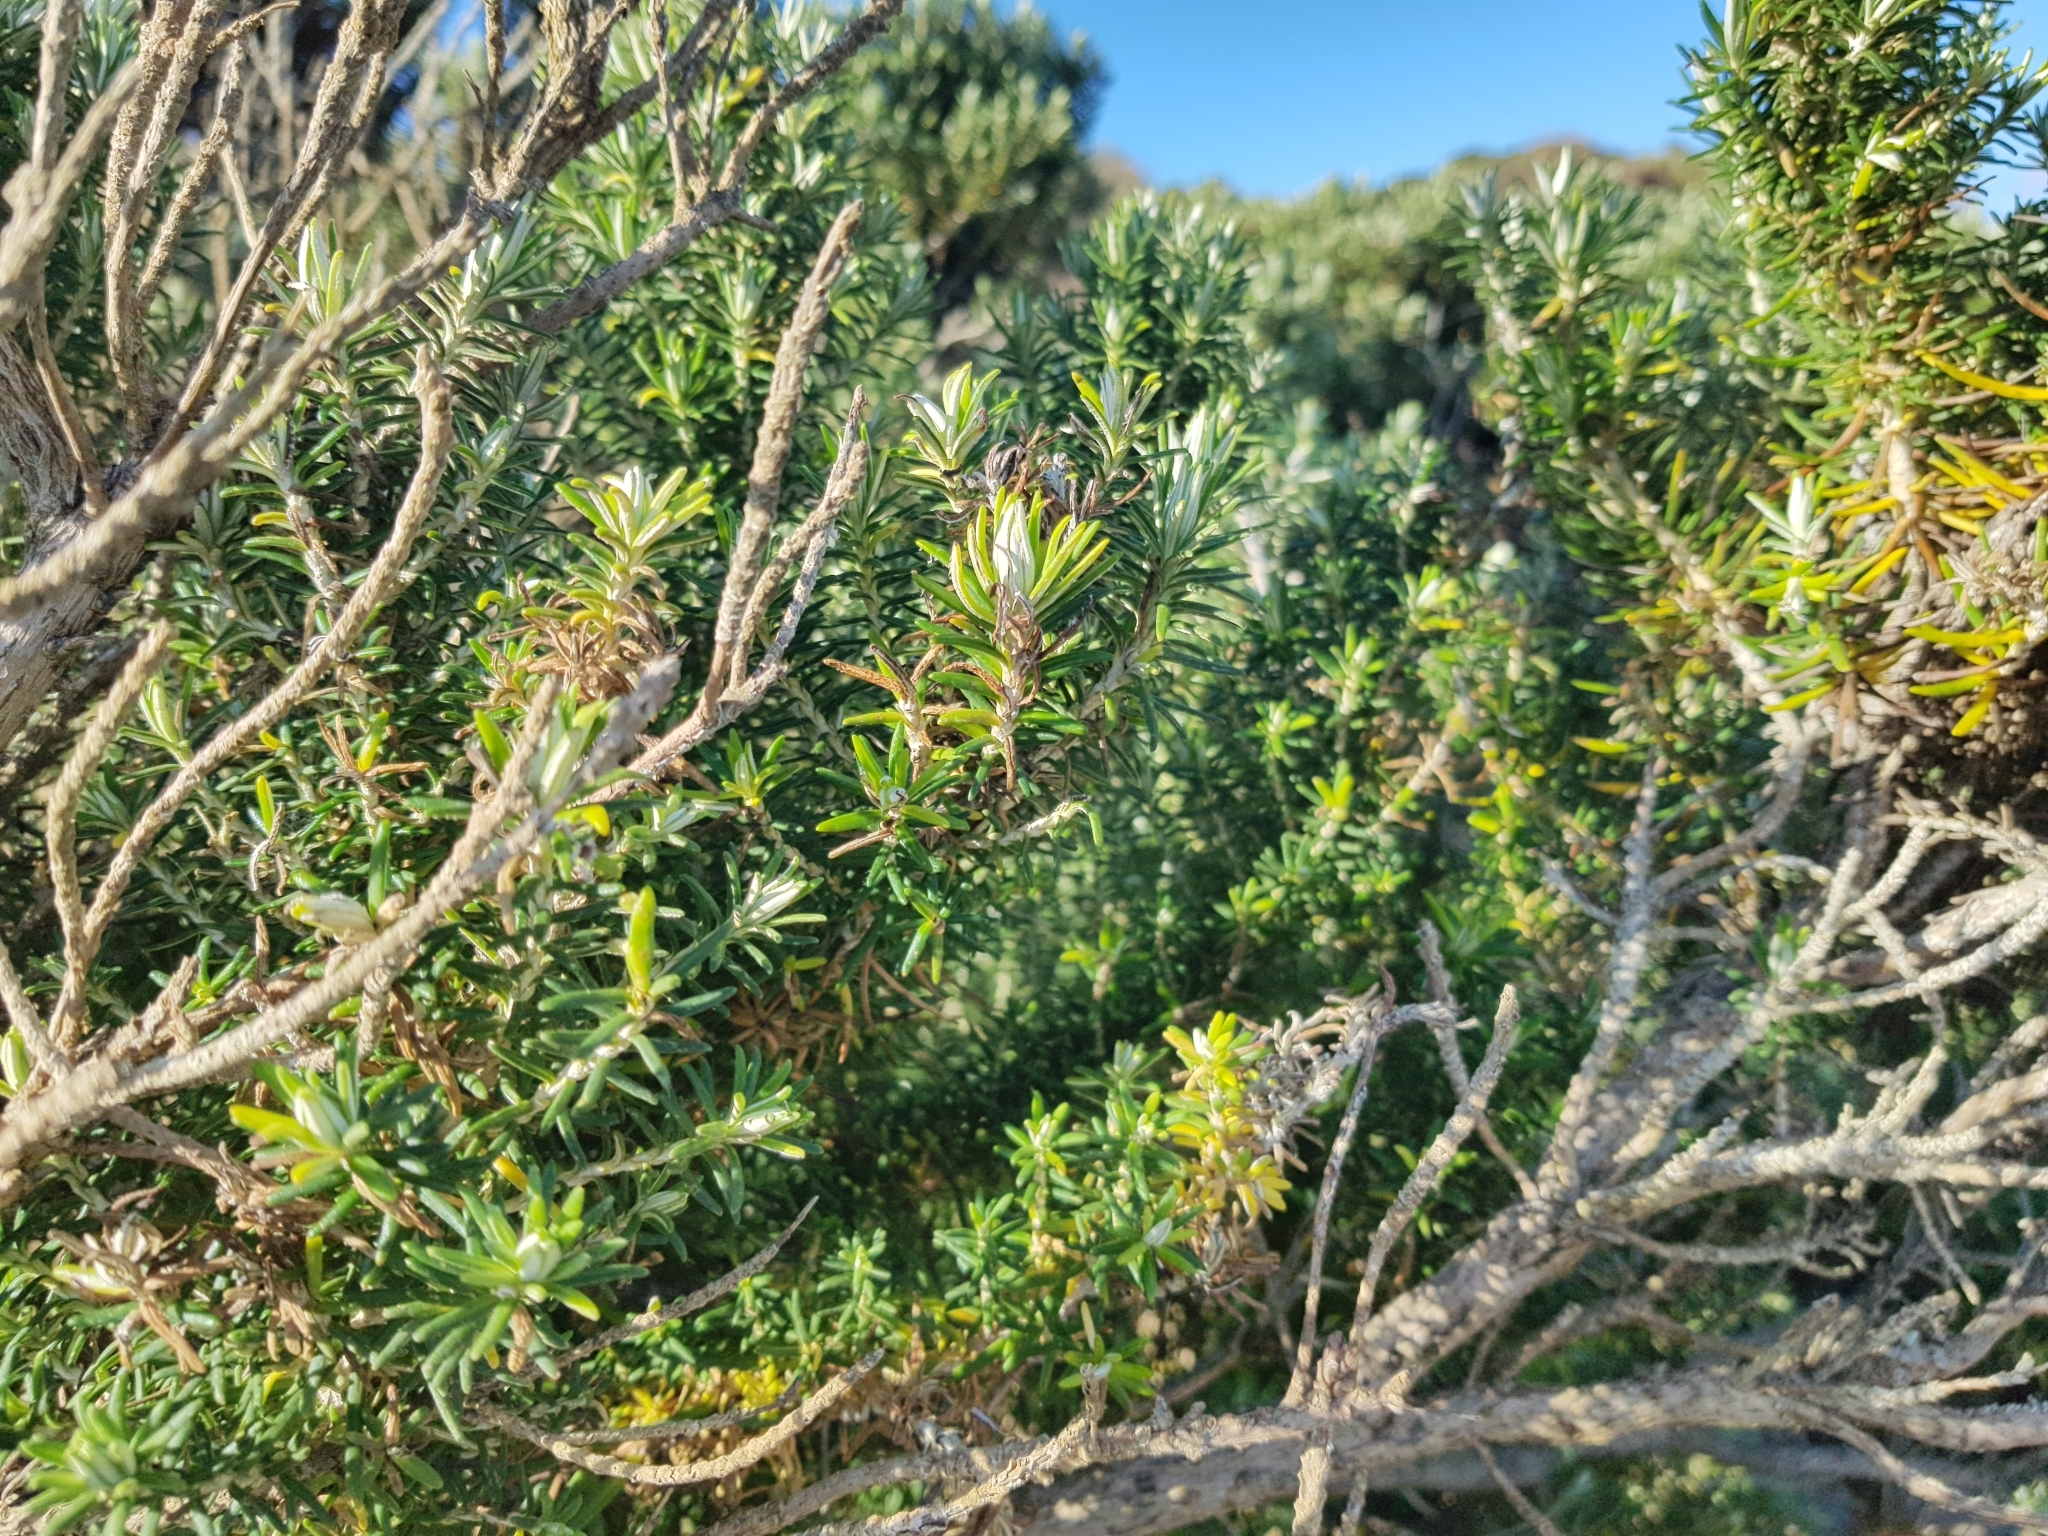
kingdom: Plantae
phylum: Tracheophyta
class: Magnoliopsida
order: Asterales
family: Asteraceae
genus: Olearia
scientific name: Olearia axillaris
